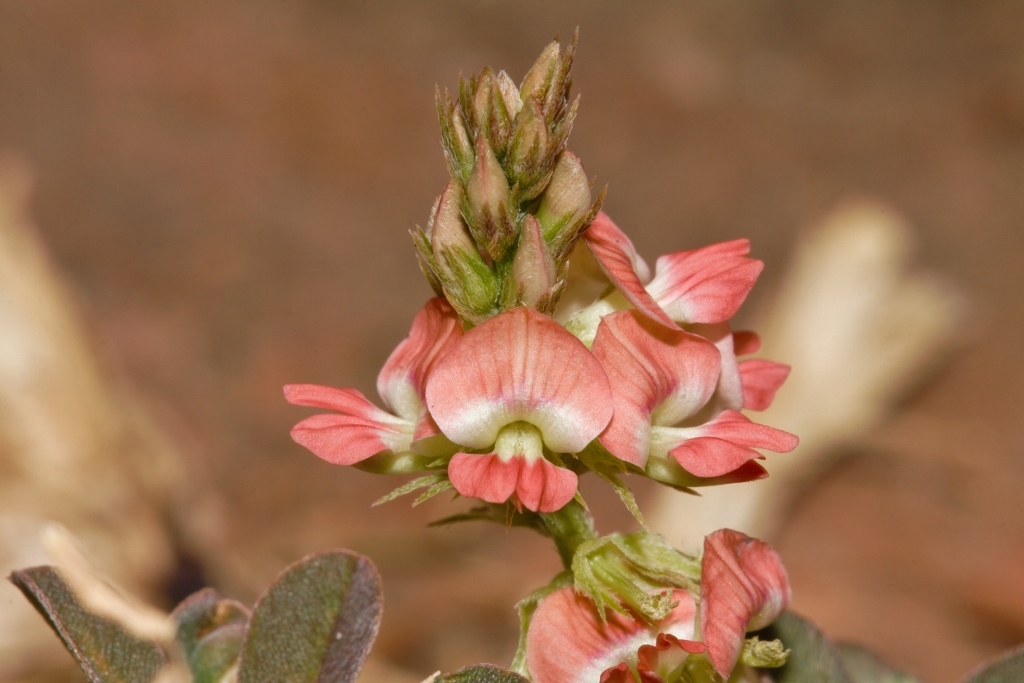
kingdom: Plantae
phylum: Tracheophyta
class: Magnoliopsida
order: Fabales
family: Fabaceae
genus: Indigofera
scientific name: Indigofera spicata
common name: Creeping indigo
